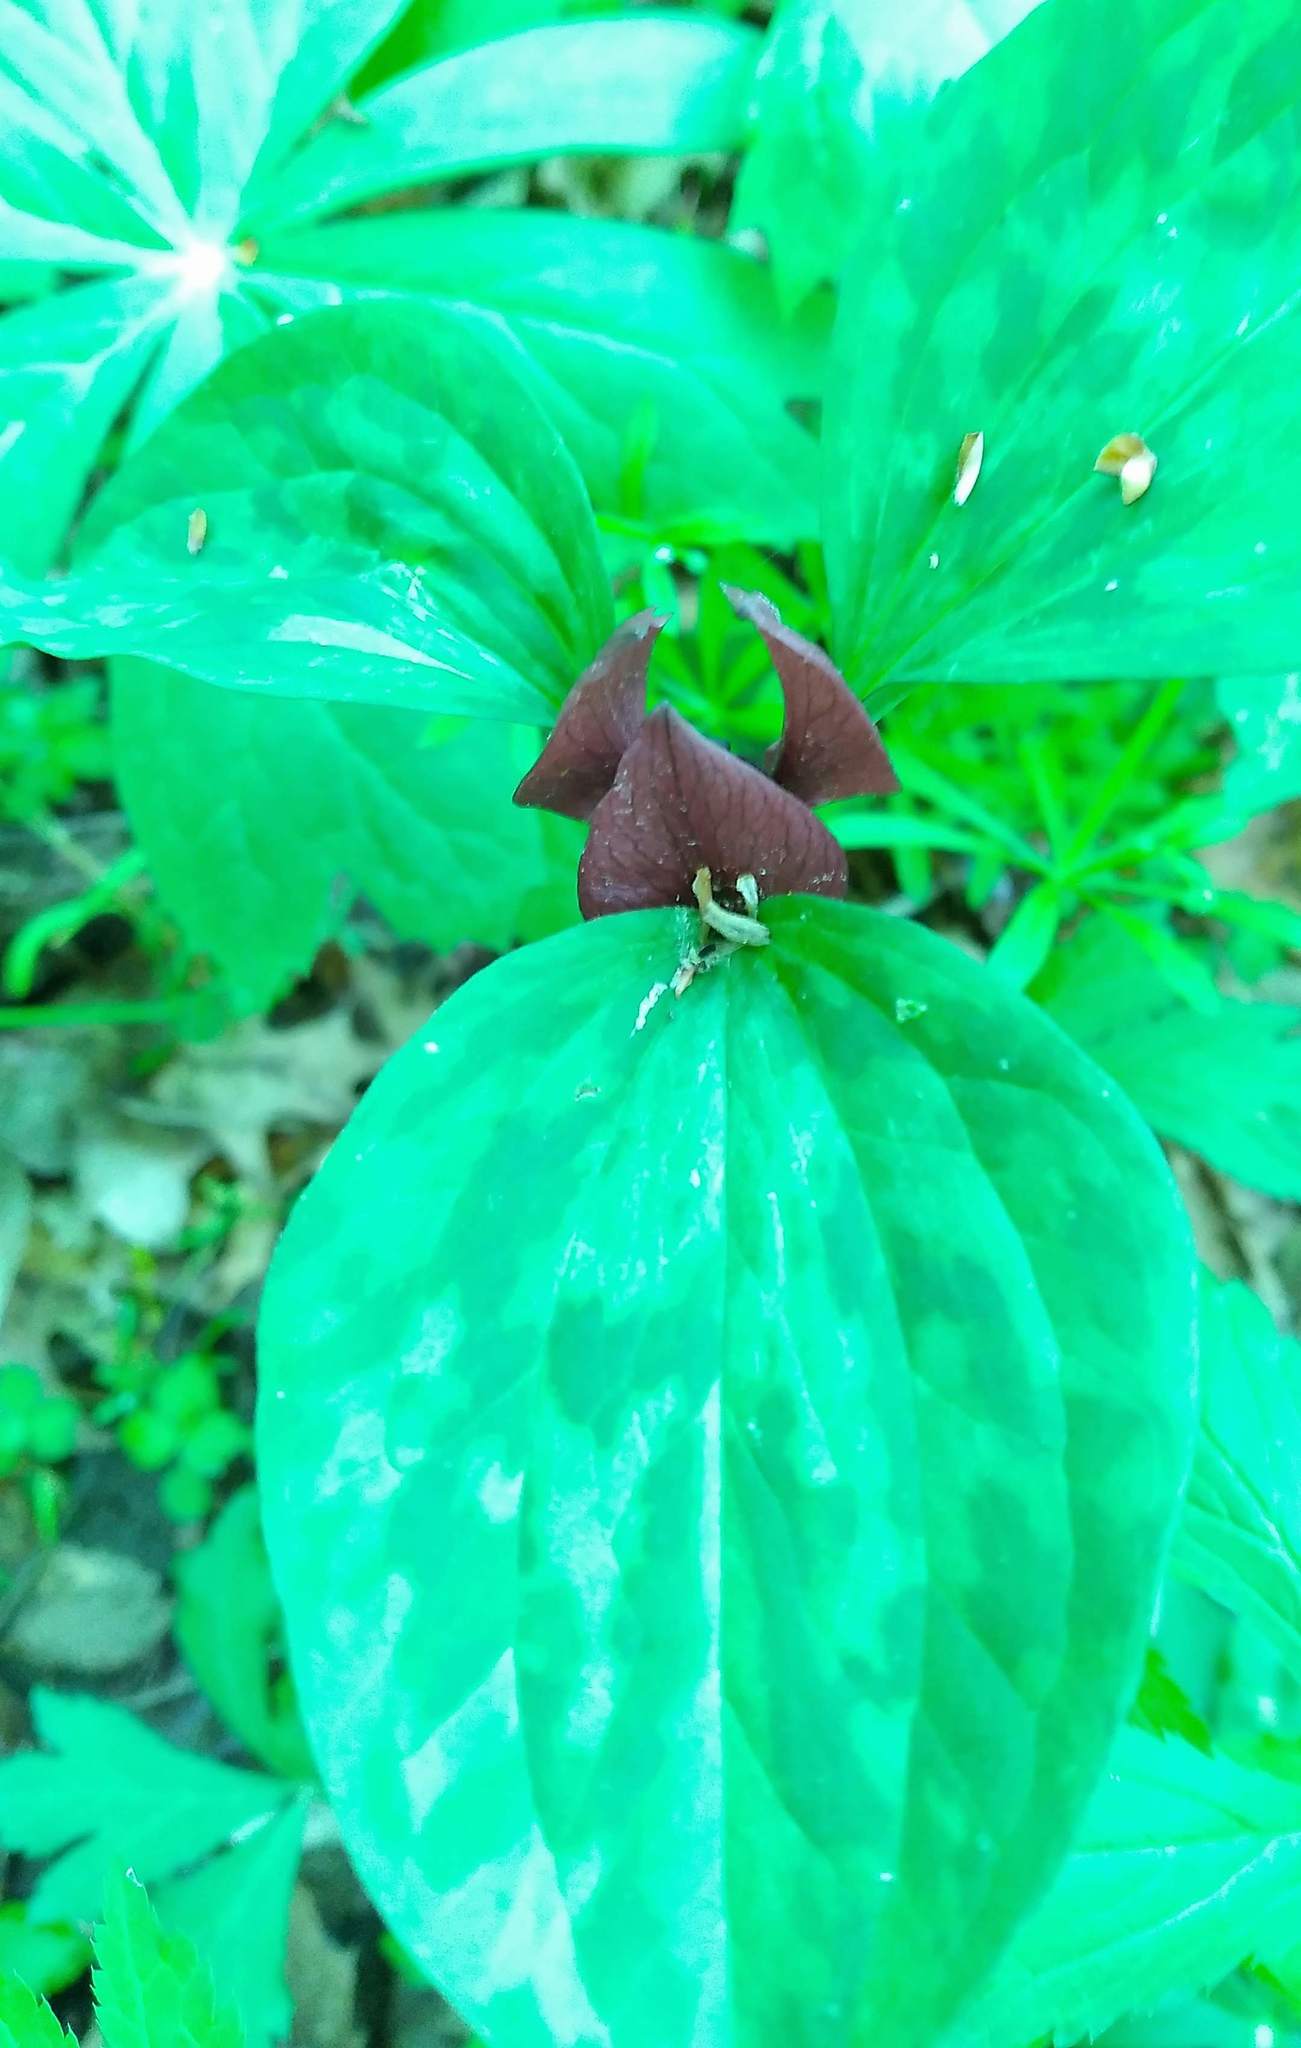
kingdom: Plantae
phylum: Tracheophyta
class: Liliopsida
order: Liliales
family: Melanthiaceae
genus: Trillium
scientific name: Trillium recurvatum
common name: Bloody butcher
